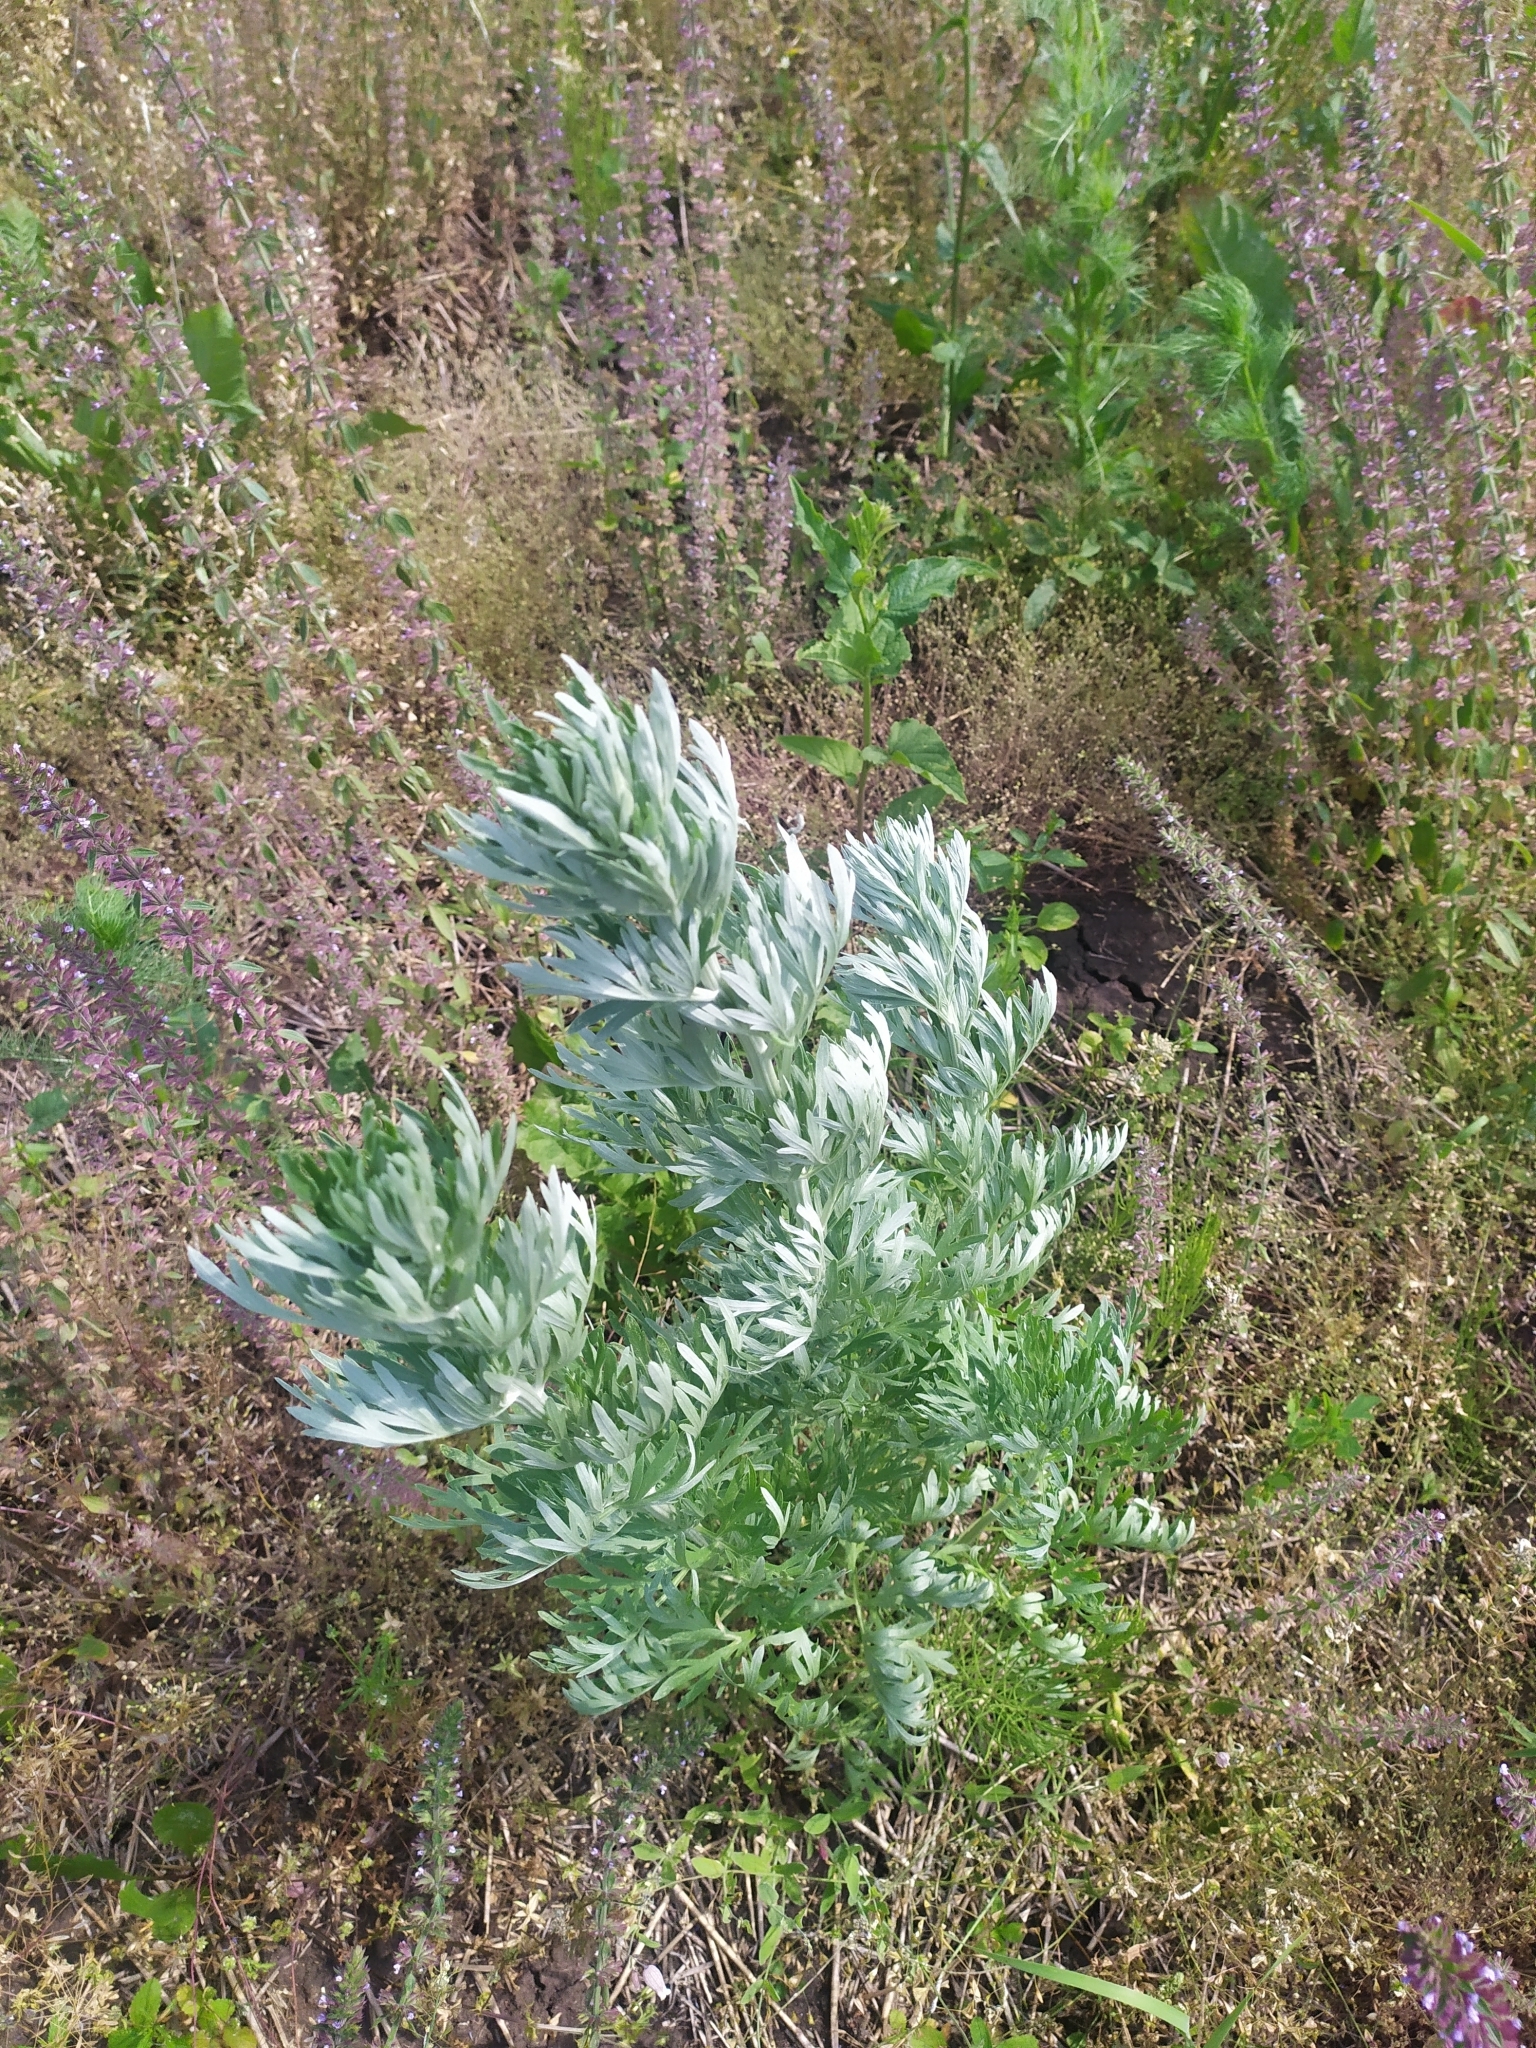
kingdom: Plantae
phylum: Tracheophyta
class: Magnoliopsida
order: Asterales
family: Asteraceae
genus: Artemisia
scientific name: Artemisia absinthium
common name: Wormwood
